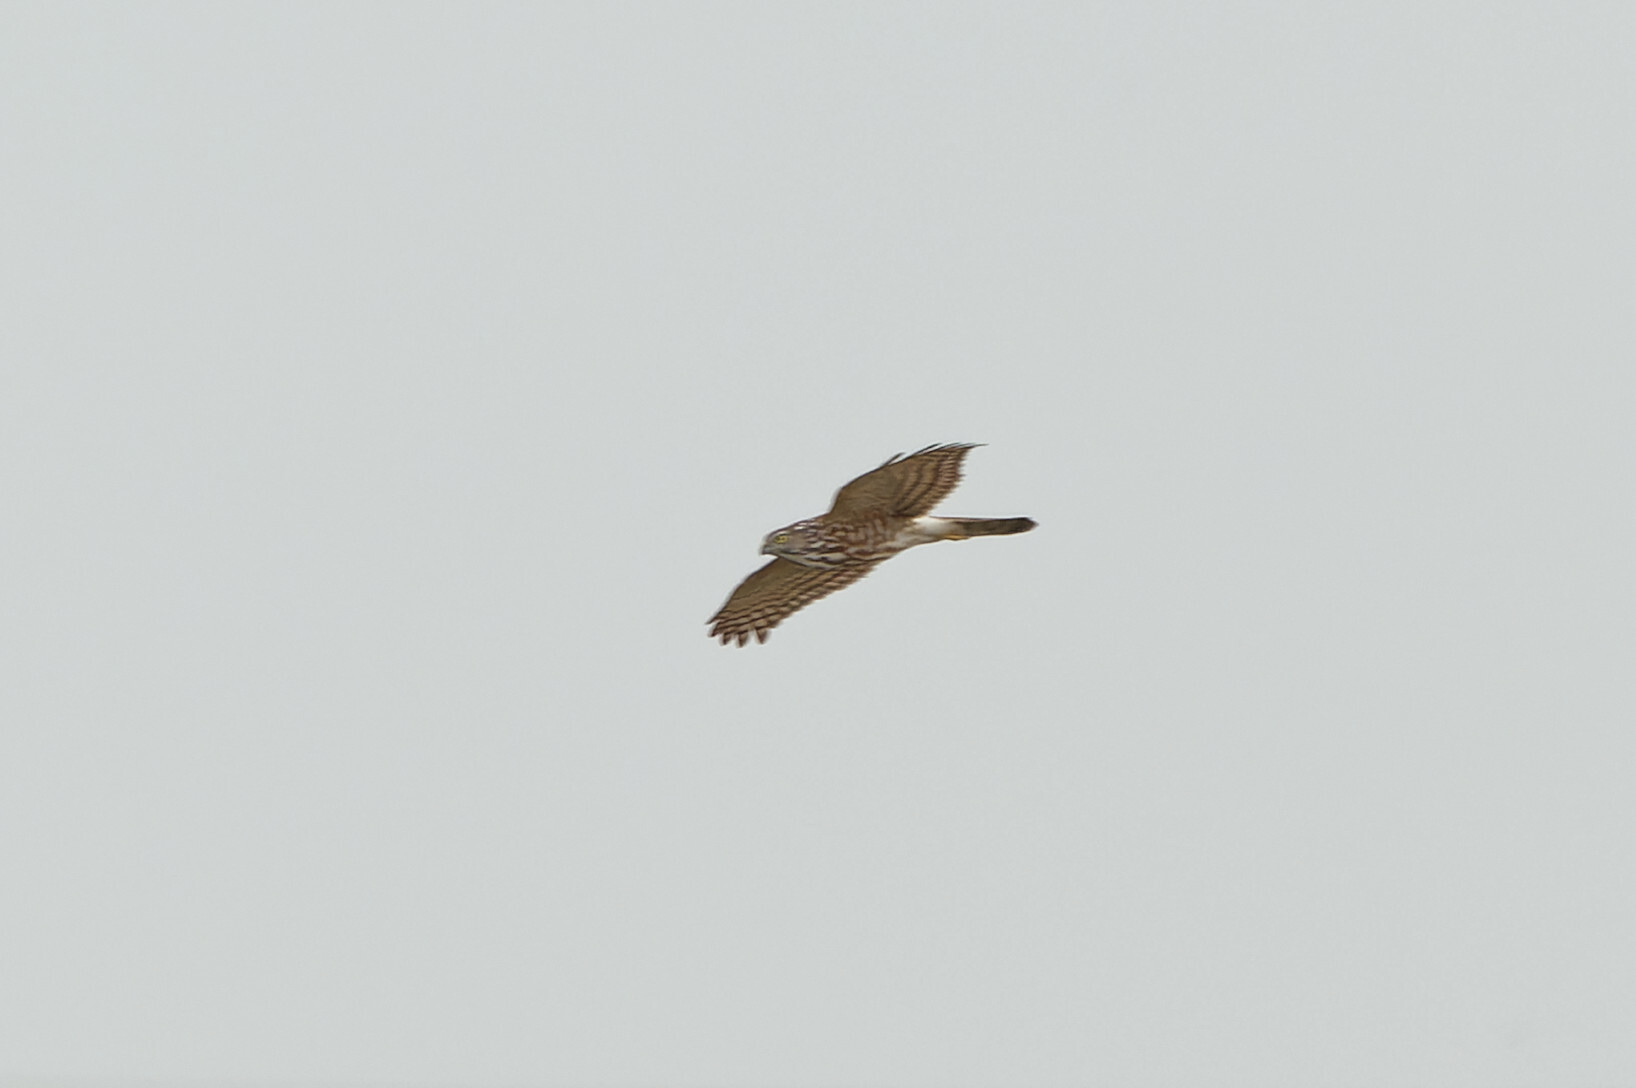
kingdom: Animalia
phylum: Chordata
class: Aves
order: Accipitriformes
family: Accipitridae
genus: Accipiter
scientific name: Accipiter badius
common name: Shikra
